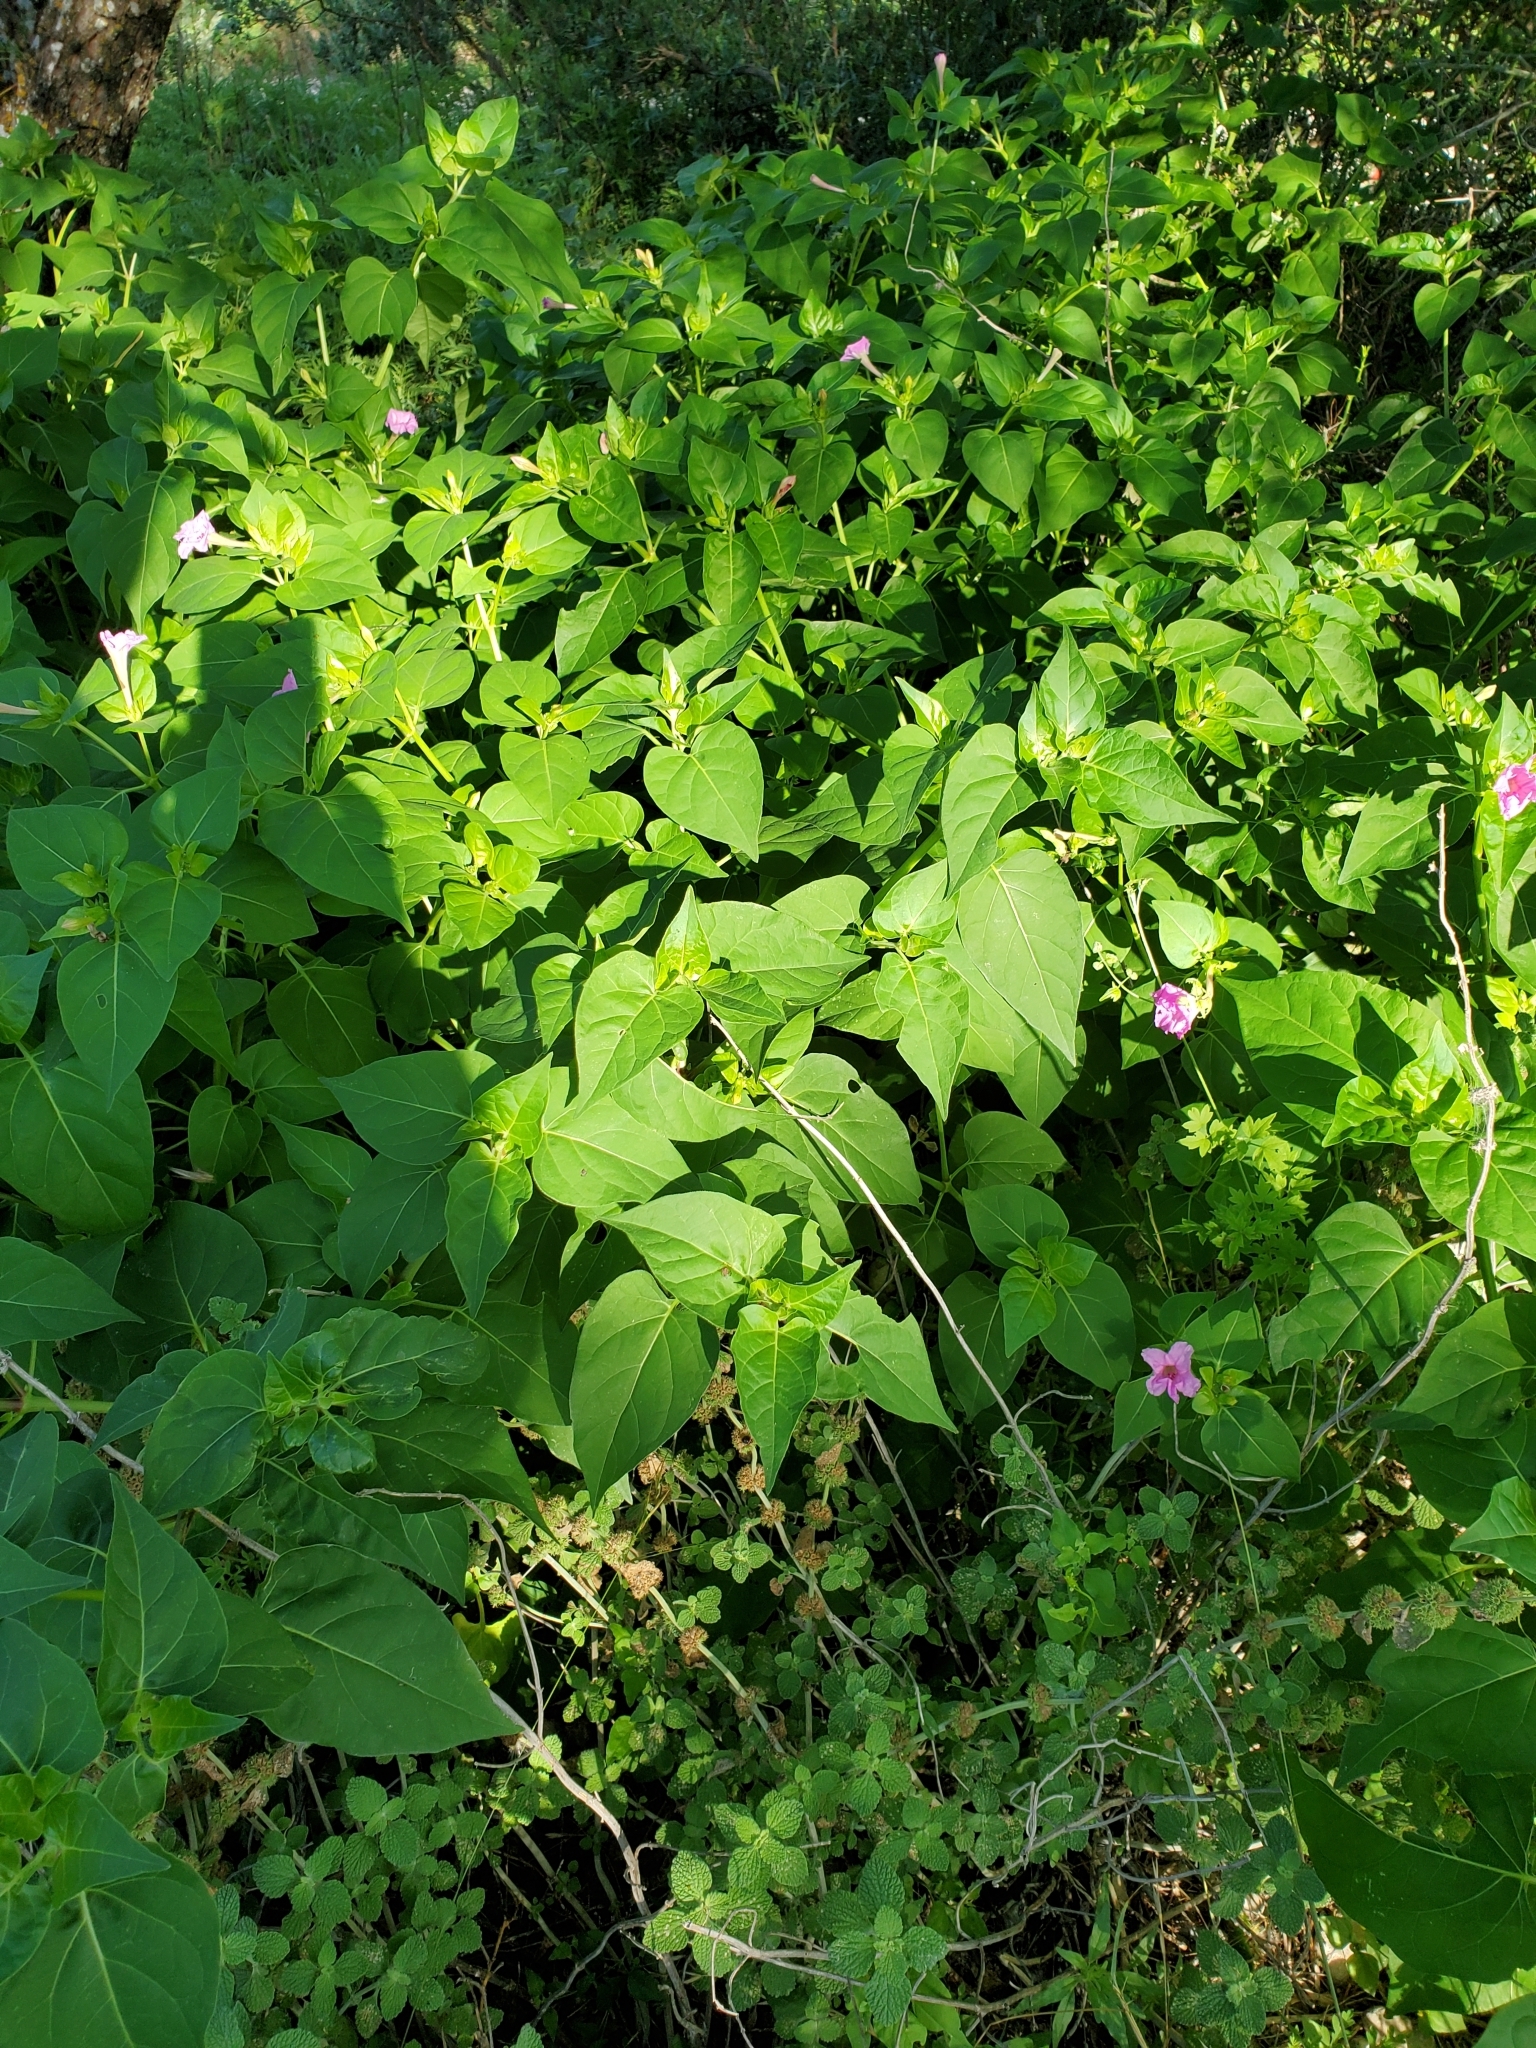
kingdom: Plantae
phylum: Tracheophyta
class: Magnoliopsida
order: Caryophyllales
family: Nyctaginaceae
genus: Mirabilis
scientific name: Mirabilis jalapa
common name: Marvel-of-peru
